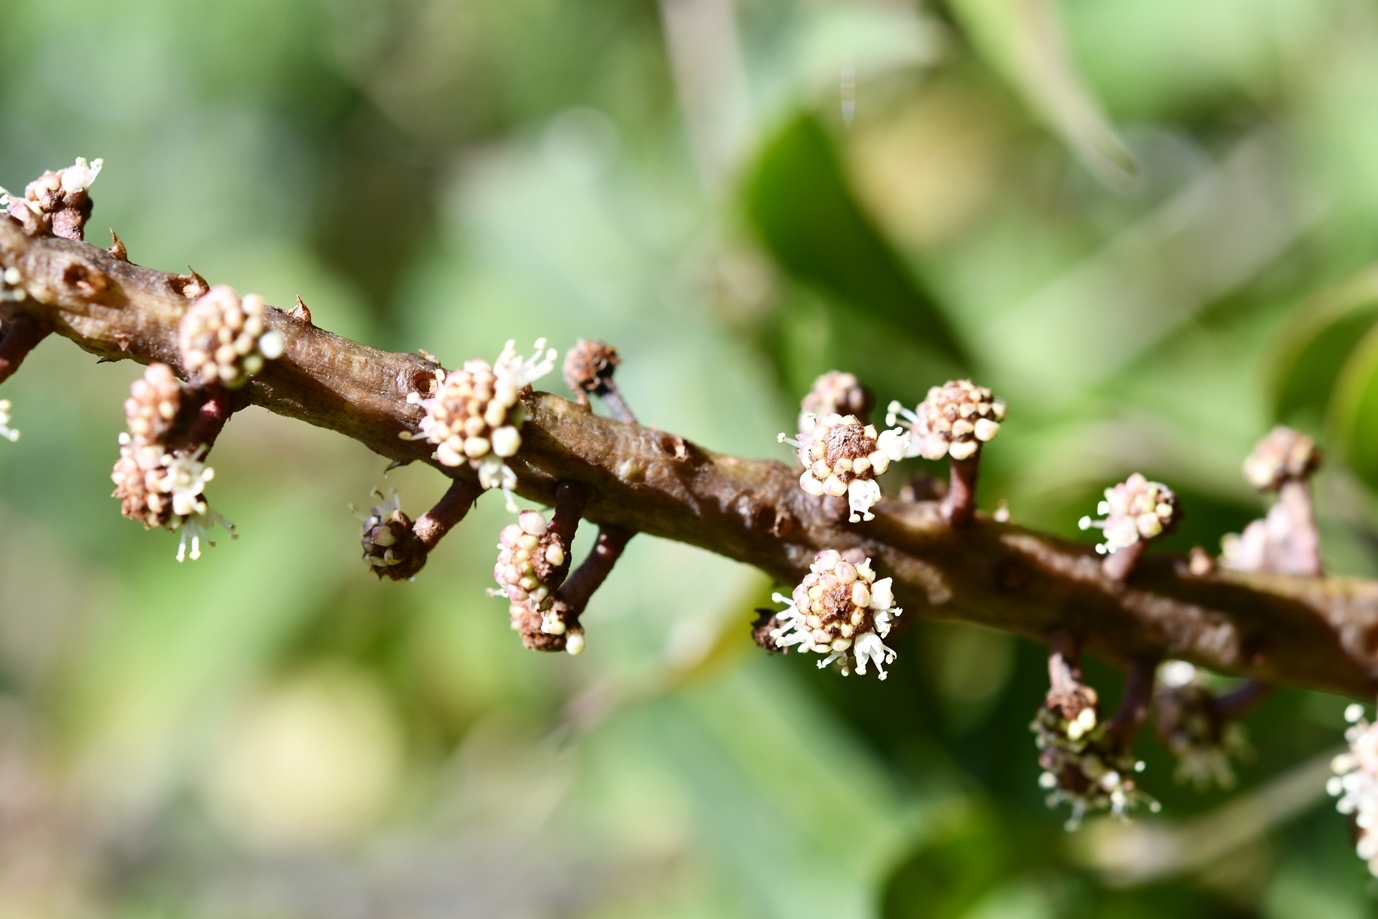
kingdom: Plantae
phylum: Tracheophyta
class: Magnoliopsida
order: Apiales
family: Araliaceae
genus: Oreopanax
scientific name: Oreopanax xalapensis
